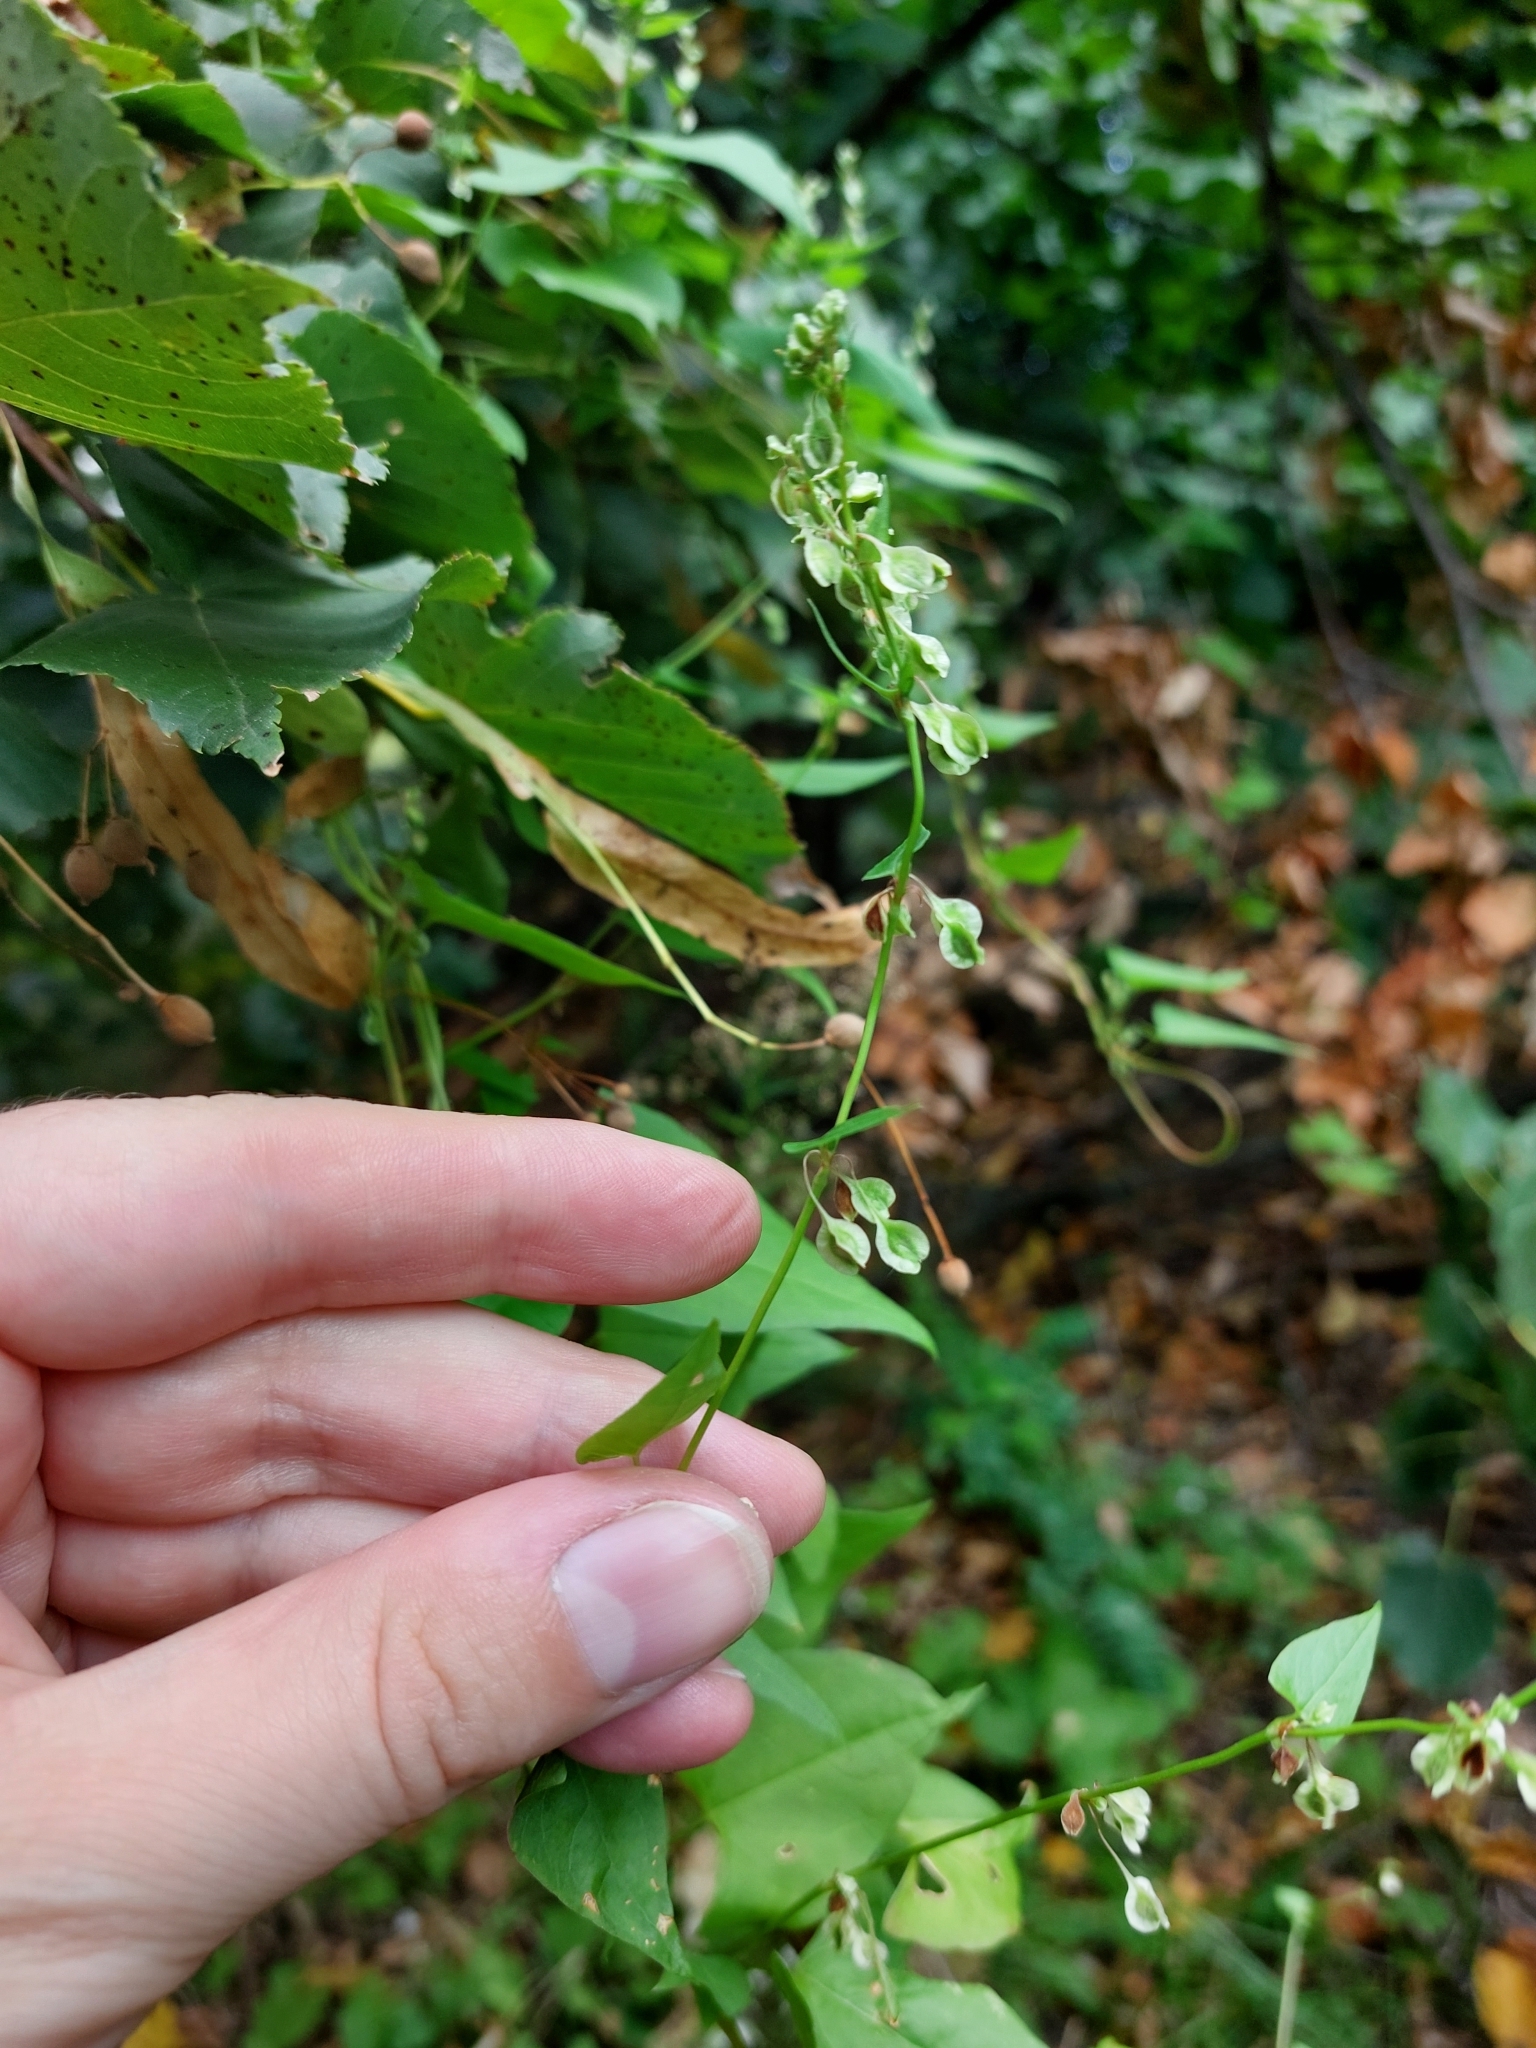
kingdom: Plantae
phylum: Tracheophyta
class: Magnoliopsida
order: Caryophyllales
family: Polygonaceae
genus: Fallopia
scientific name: Fallopia dumetorum
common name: Copse-bindweed
